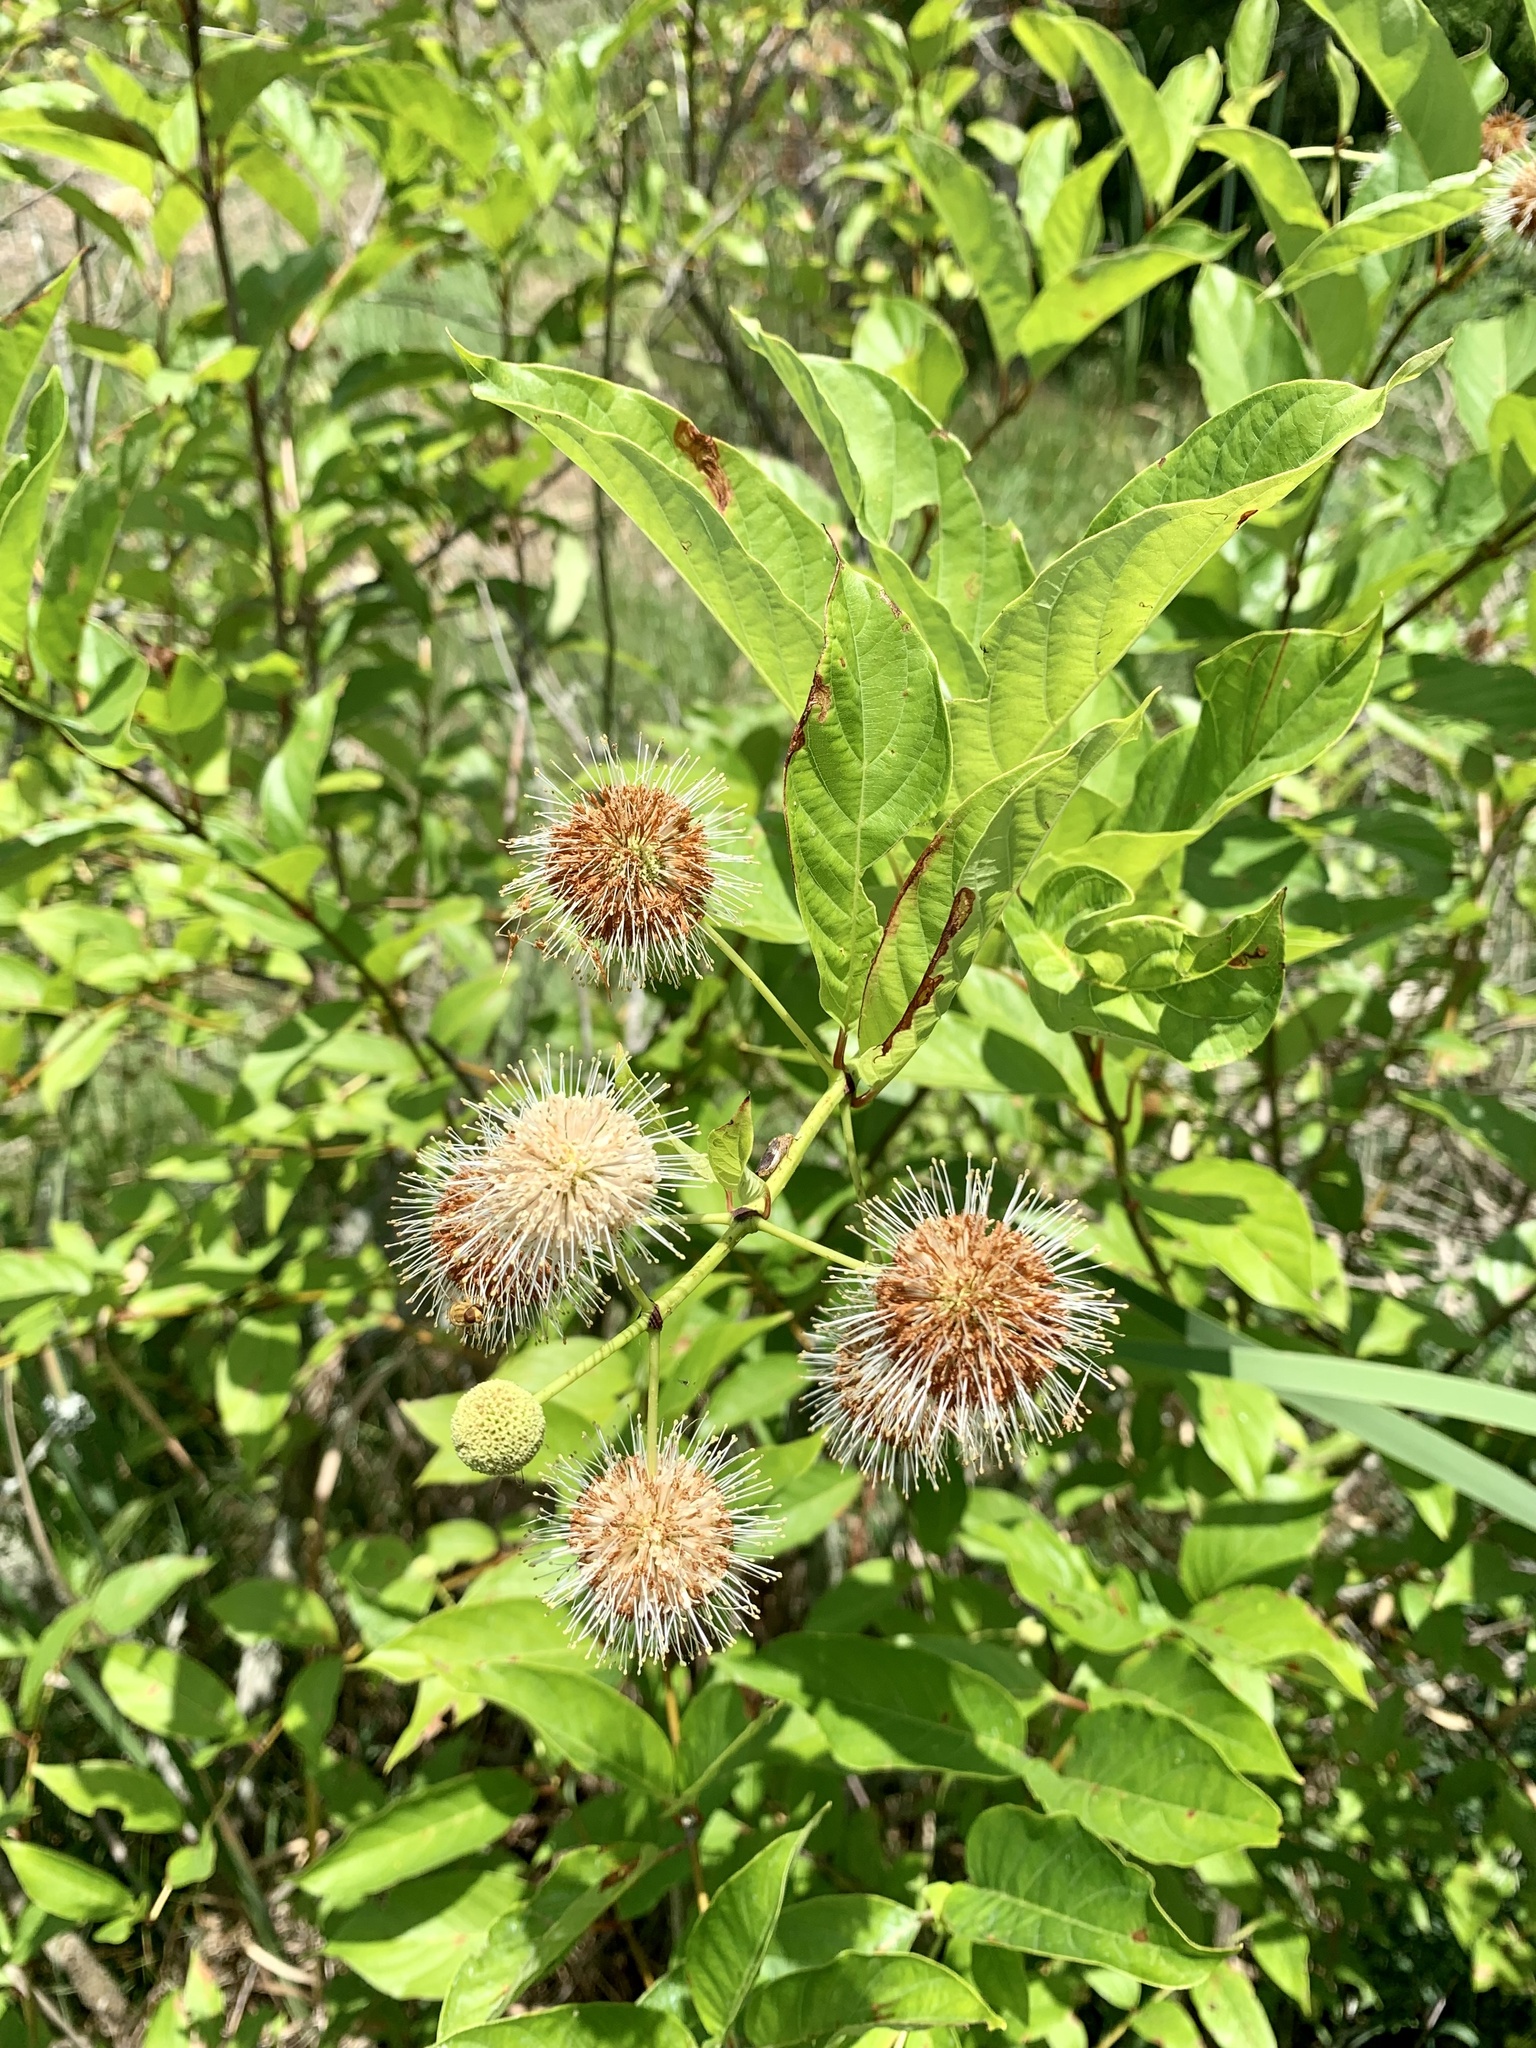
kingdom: Plantae
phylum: Tracheophyta
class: Magnoliopsida
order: Gentianales
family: Rubiaceae
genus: Cephalanthus
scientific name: Cephalanthus occidentalis
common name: Button-willow
